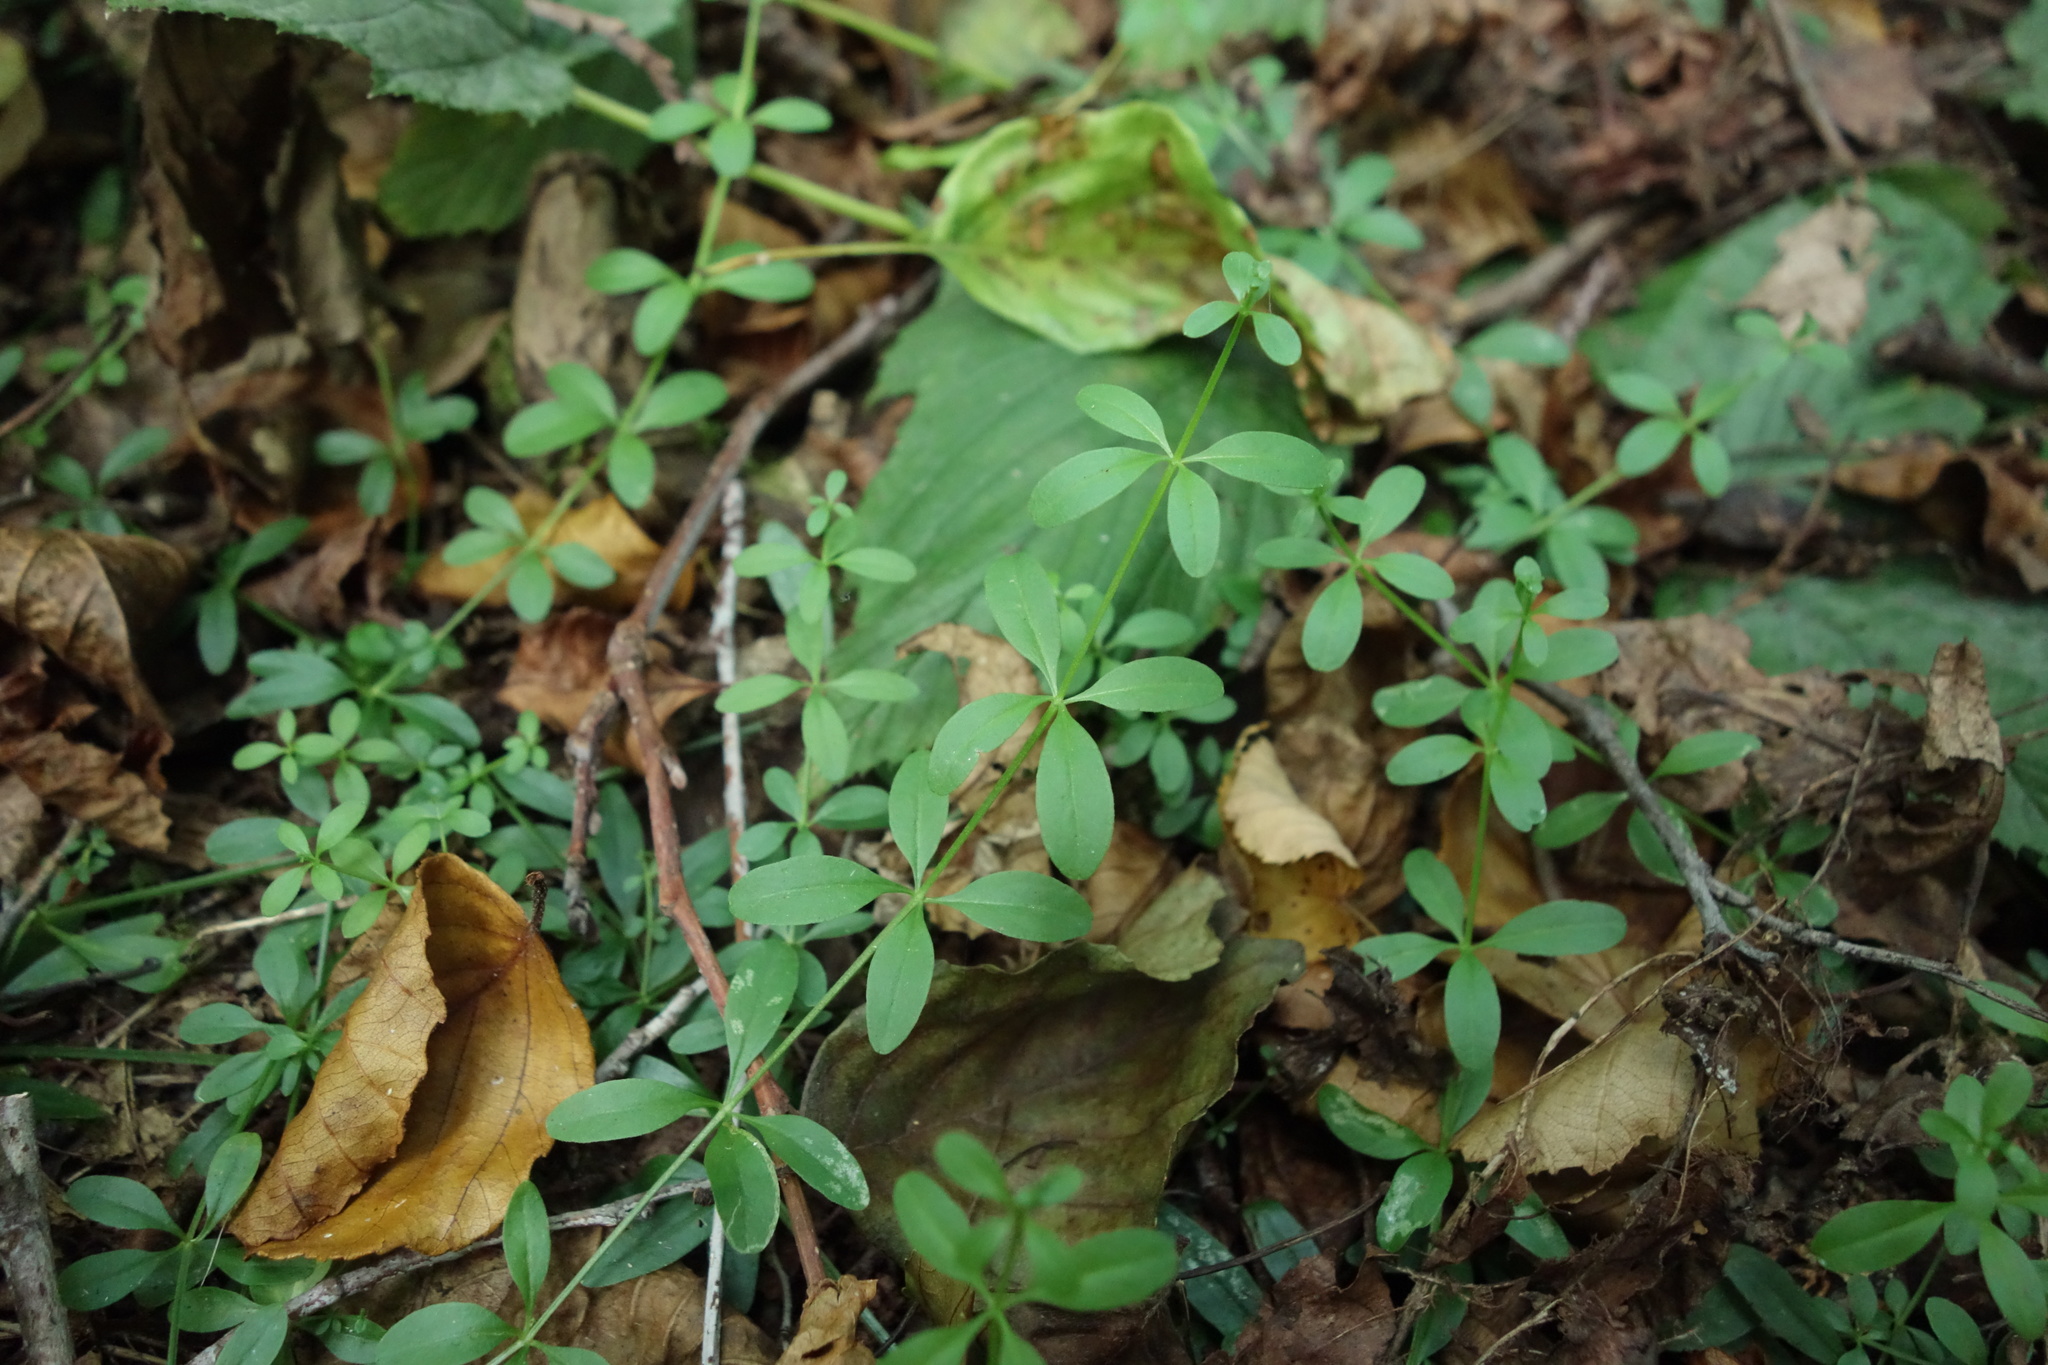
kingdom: Plantae
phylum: Tracheophyta
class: Magnoliopsida
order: Gentianales
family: Rubiaceae
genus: Galium
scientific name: Galium palustre
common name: Common marsh-bedstraw
